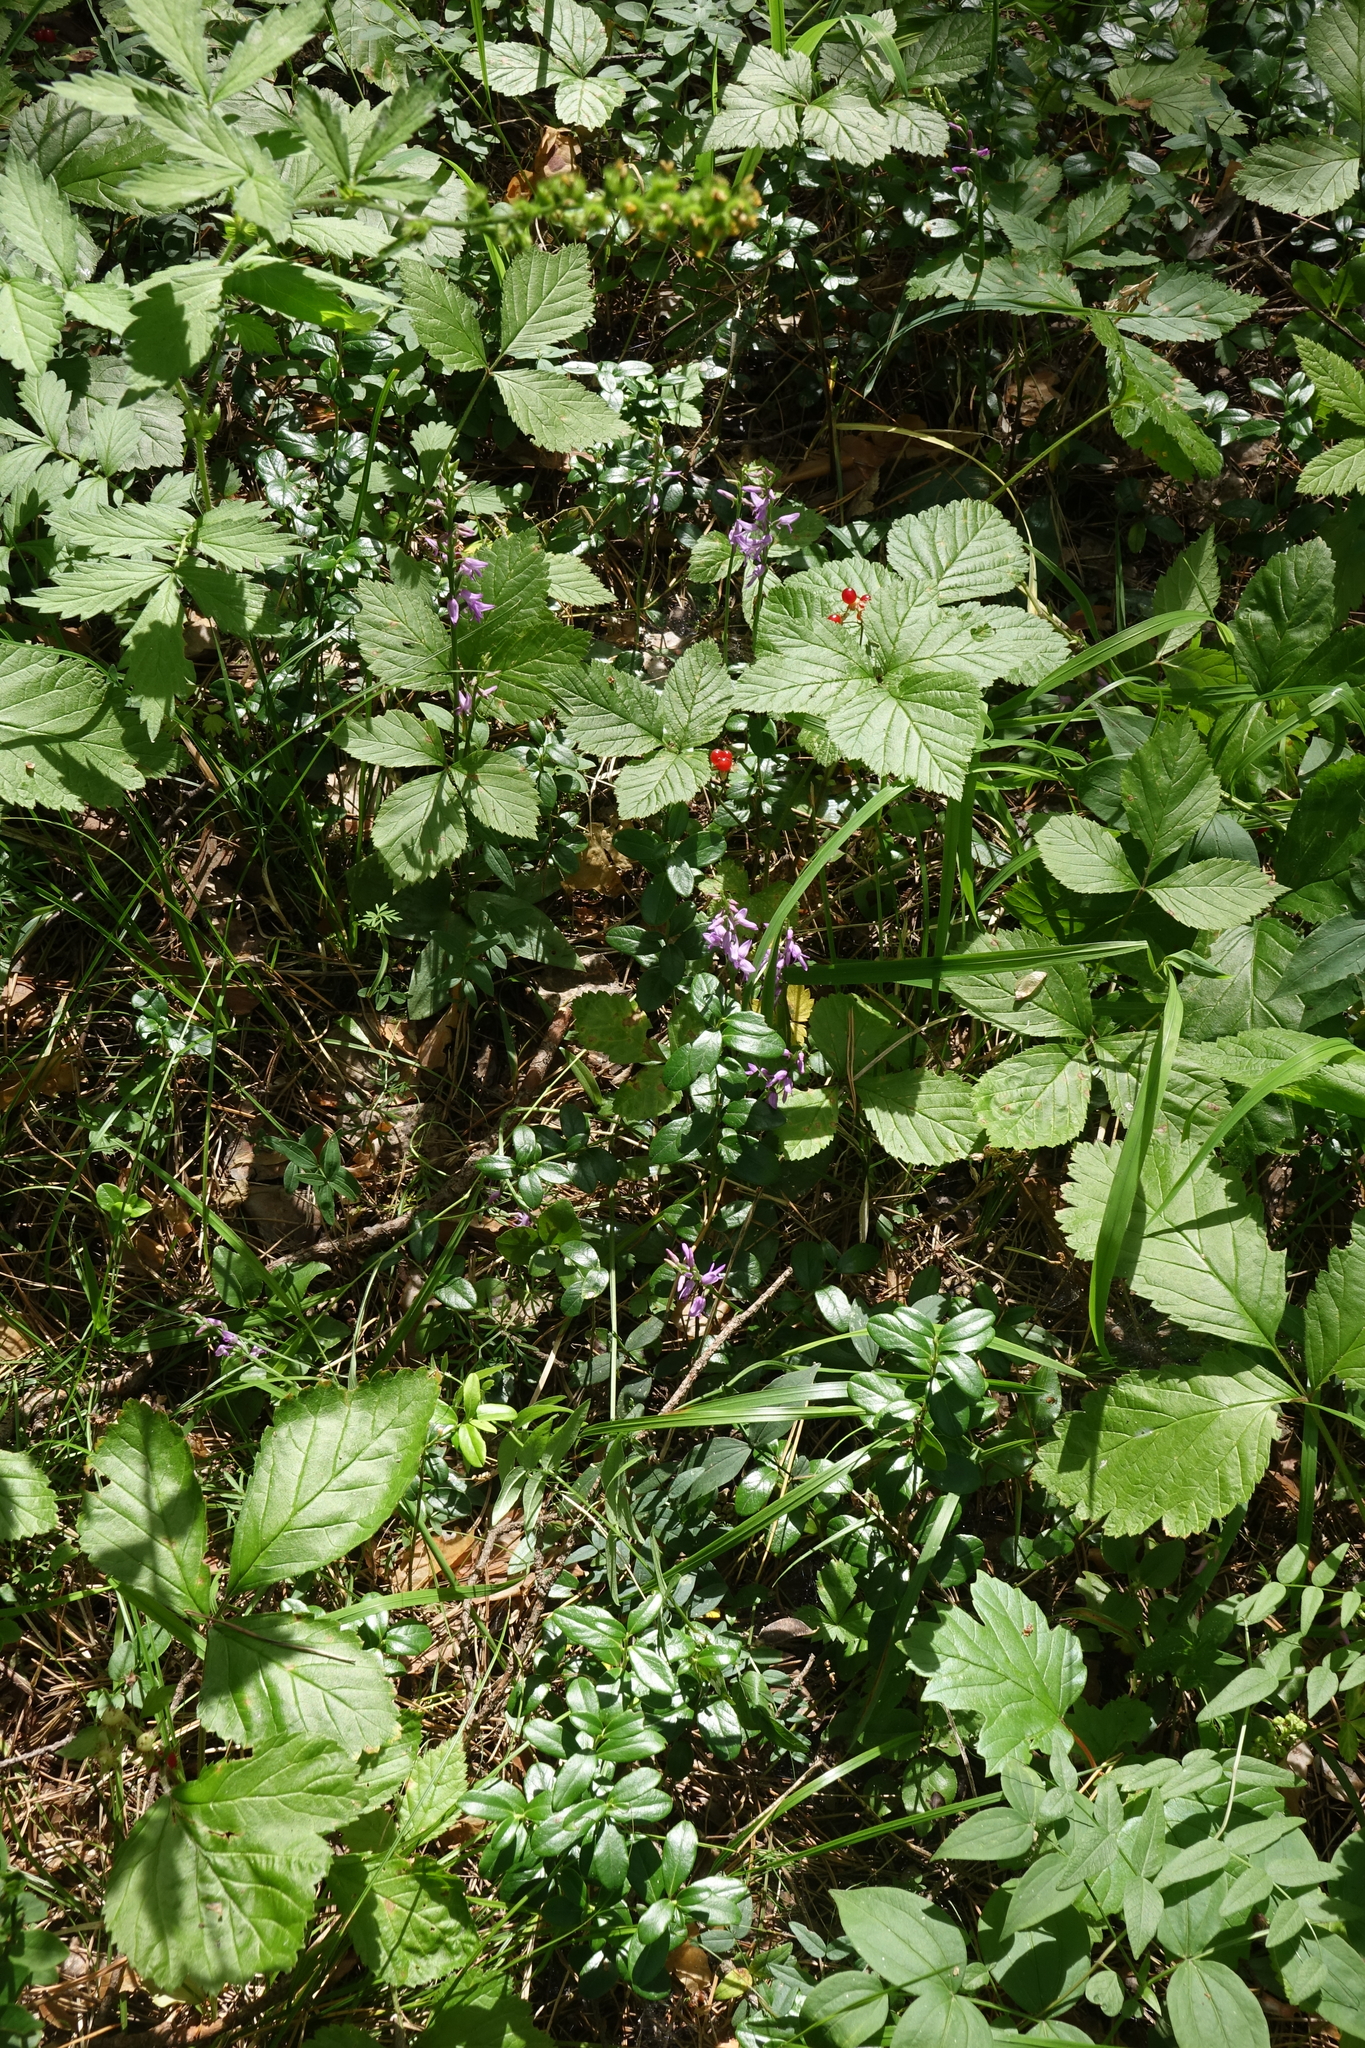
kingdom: Plantae
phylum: Tracheophyta
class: Liliopsida
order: Asparagales
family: Orchidaceae
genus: Hemipilia
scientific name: Hemipilia cucullata
